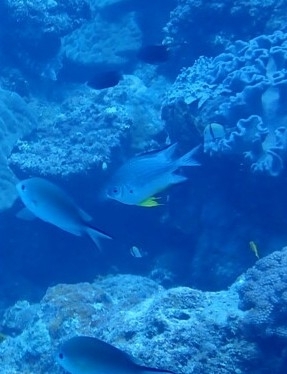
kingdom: Animalia
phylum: Chordata
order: Perciformes
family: Pomacentridae
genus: Amblyglyphidodon
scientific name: Amblyglyphidodon leucogaster
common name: White-belly damsel
